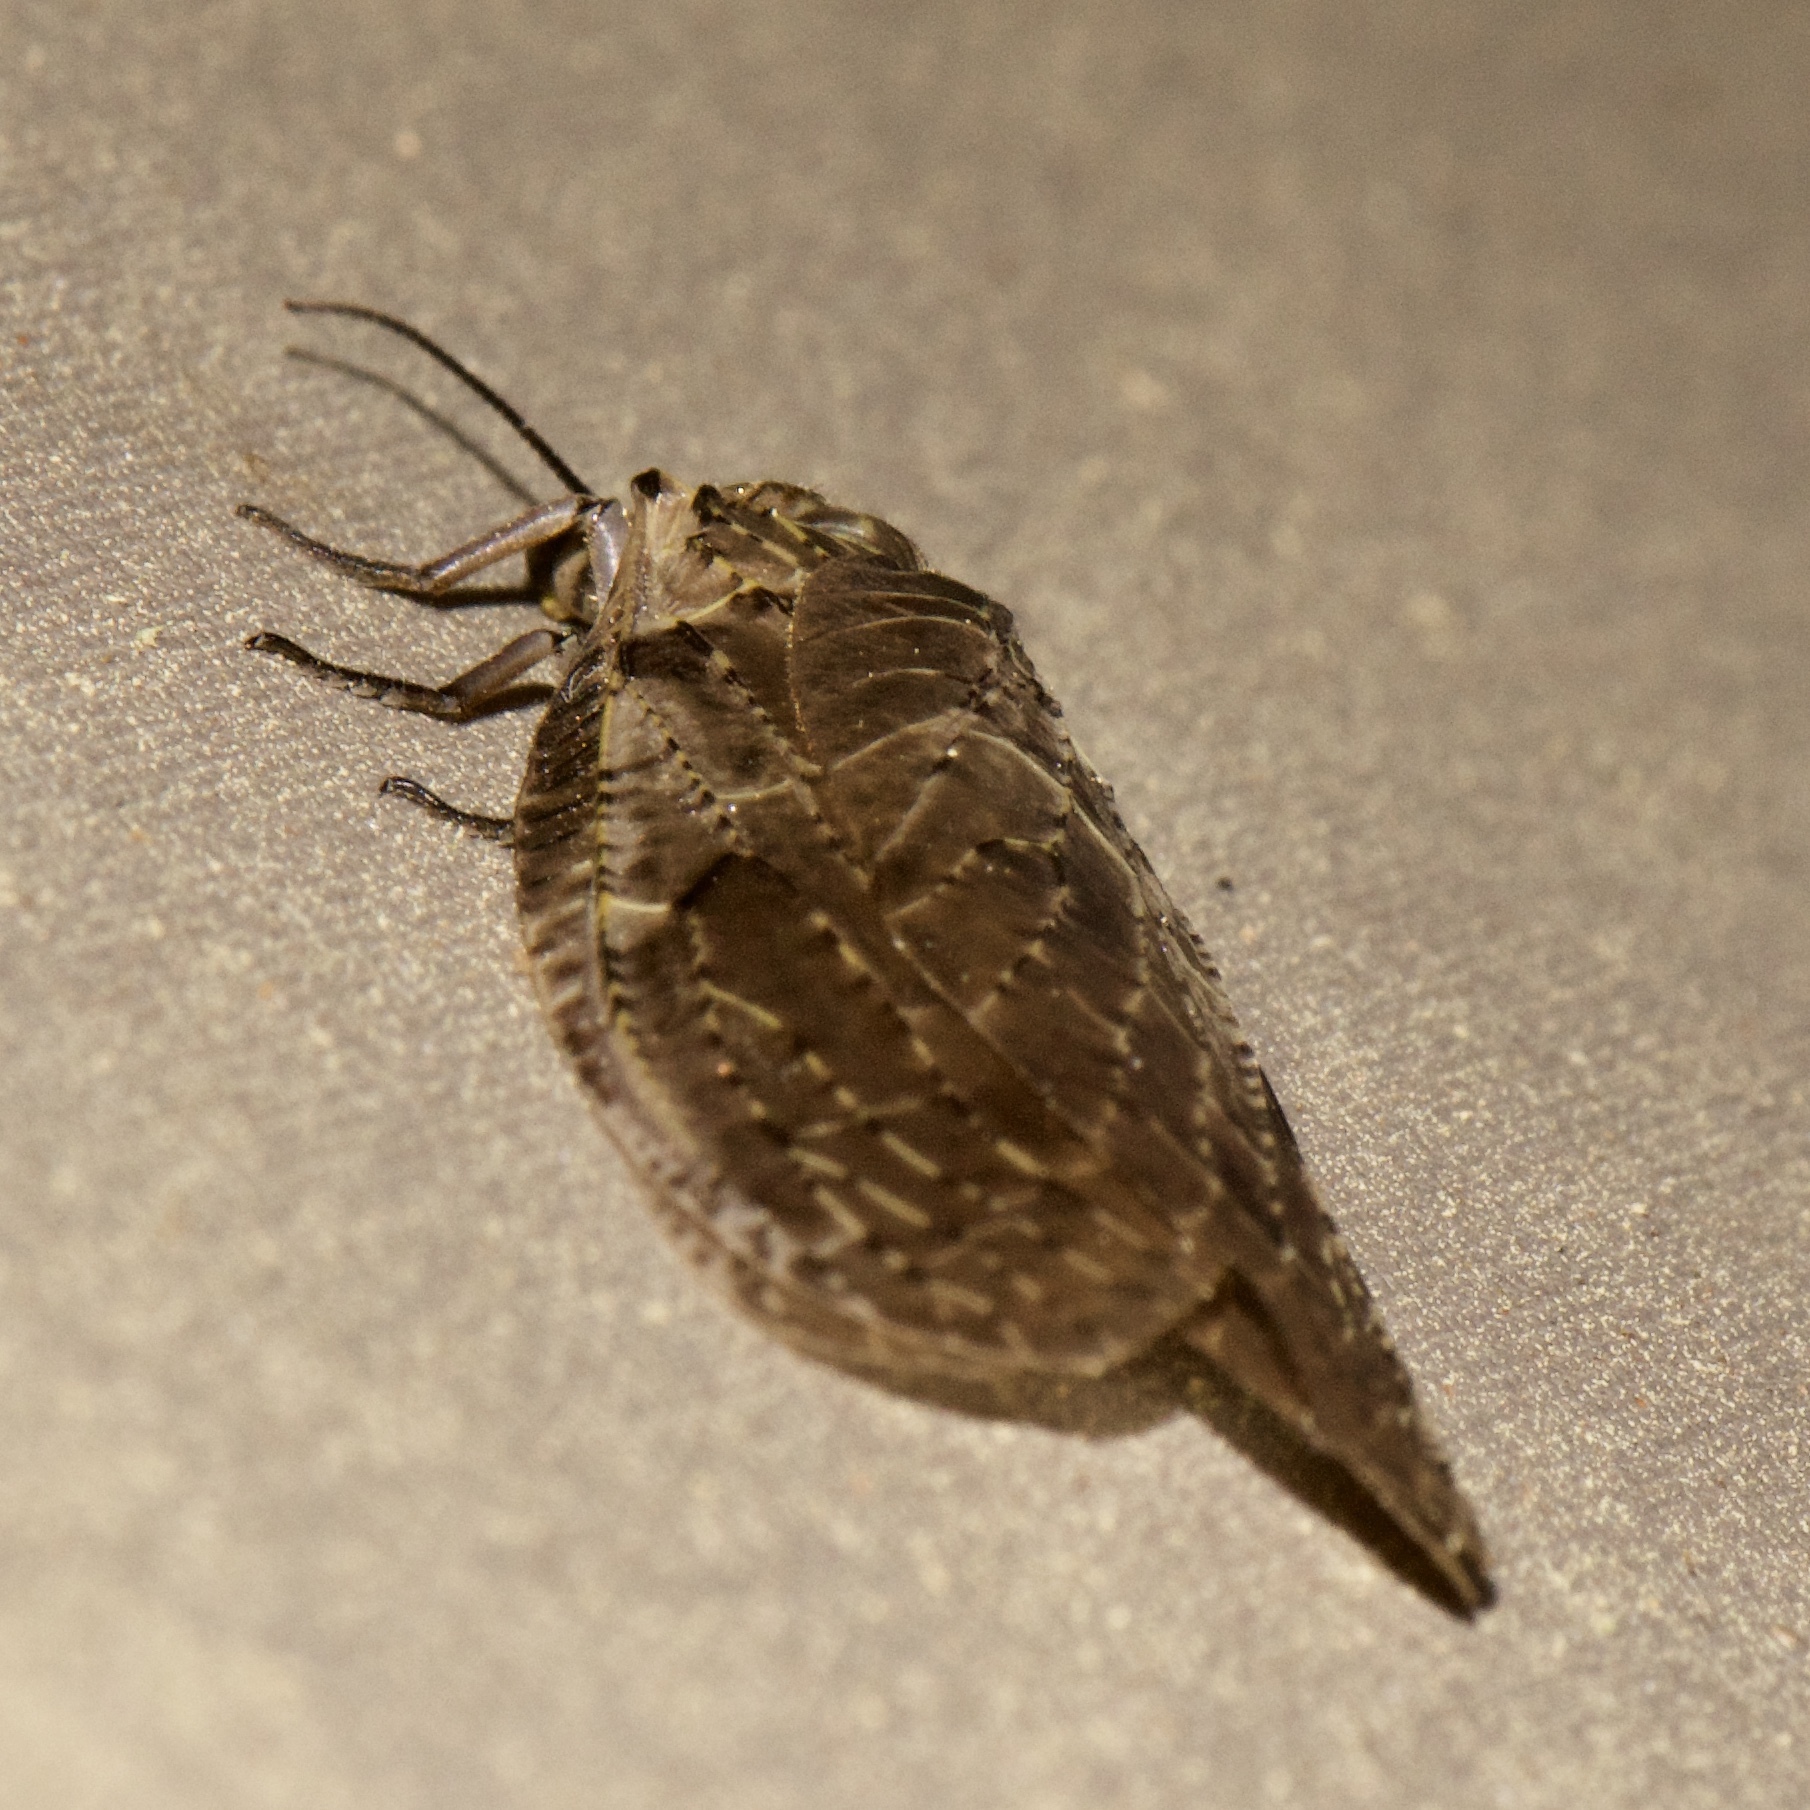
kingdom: Animalia
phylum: Arthropoda
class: Insecta
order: Megaloptera
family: Corydalidae
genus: Chauliodes
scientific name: Chauliodes rastricornis
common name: Spring fishfly
